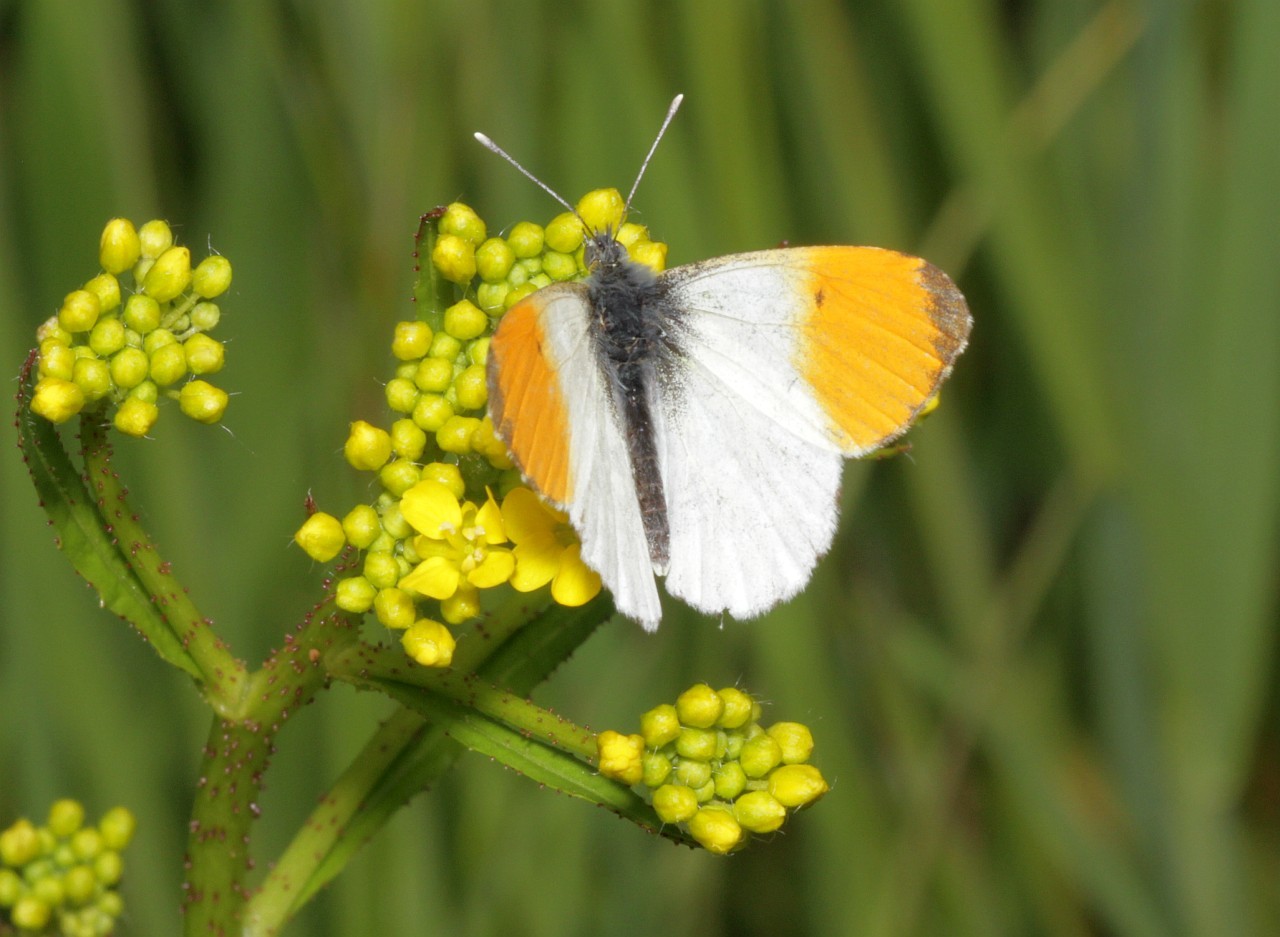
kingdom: Animalia
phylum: Arthropoda
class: Insecta
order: Lepidoptera
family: Pieridae
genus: Anthocharis
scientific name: Anthocharis cardamines
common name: Orange-tip
